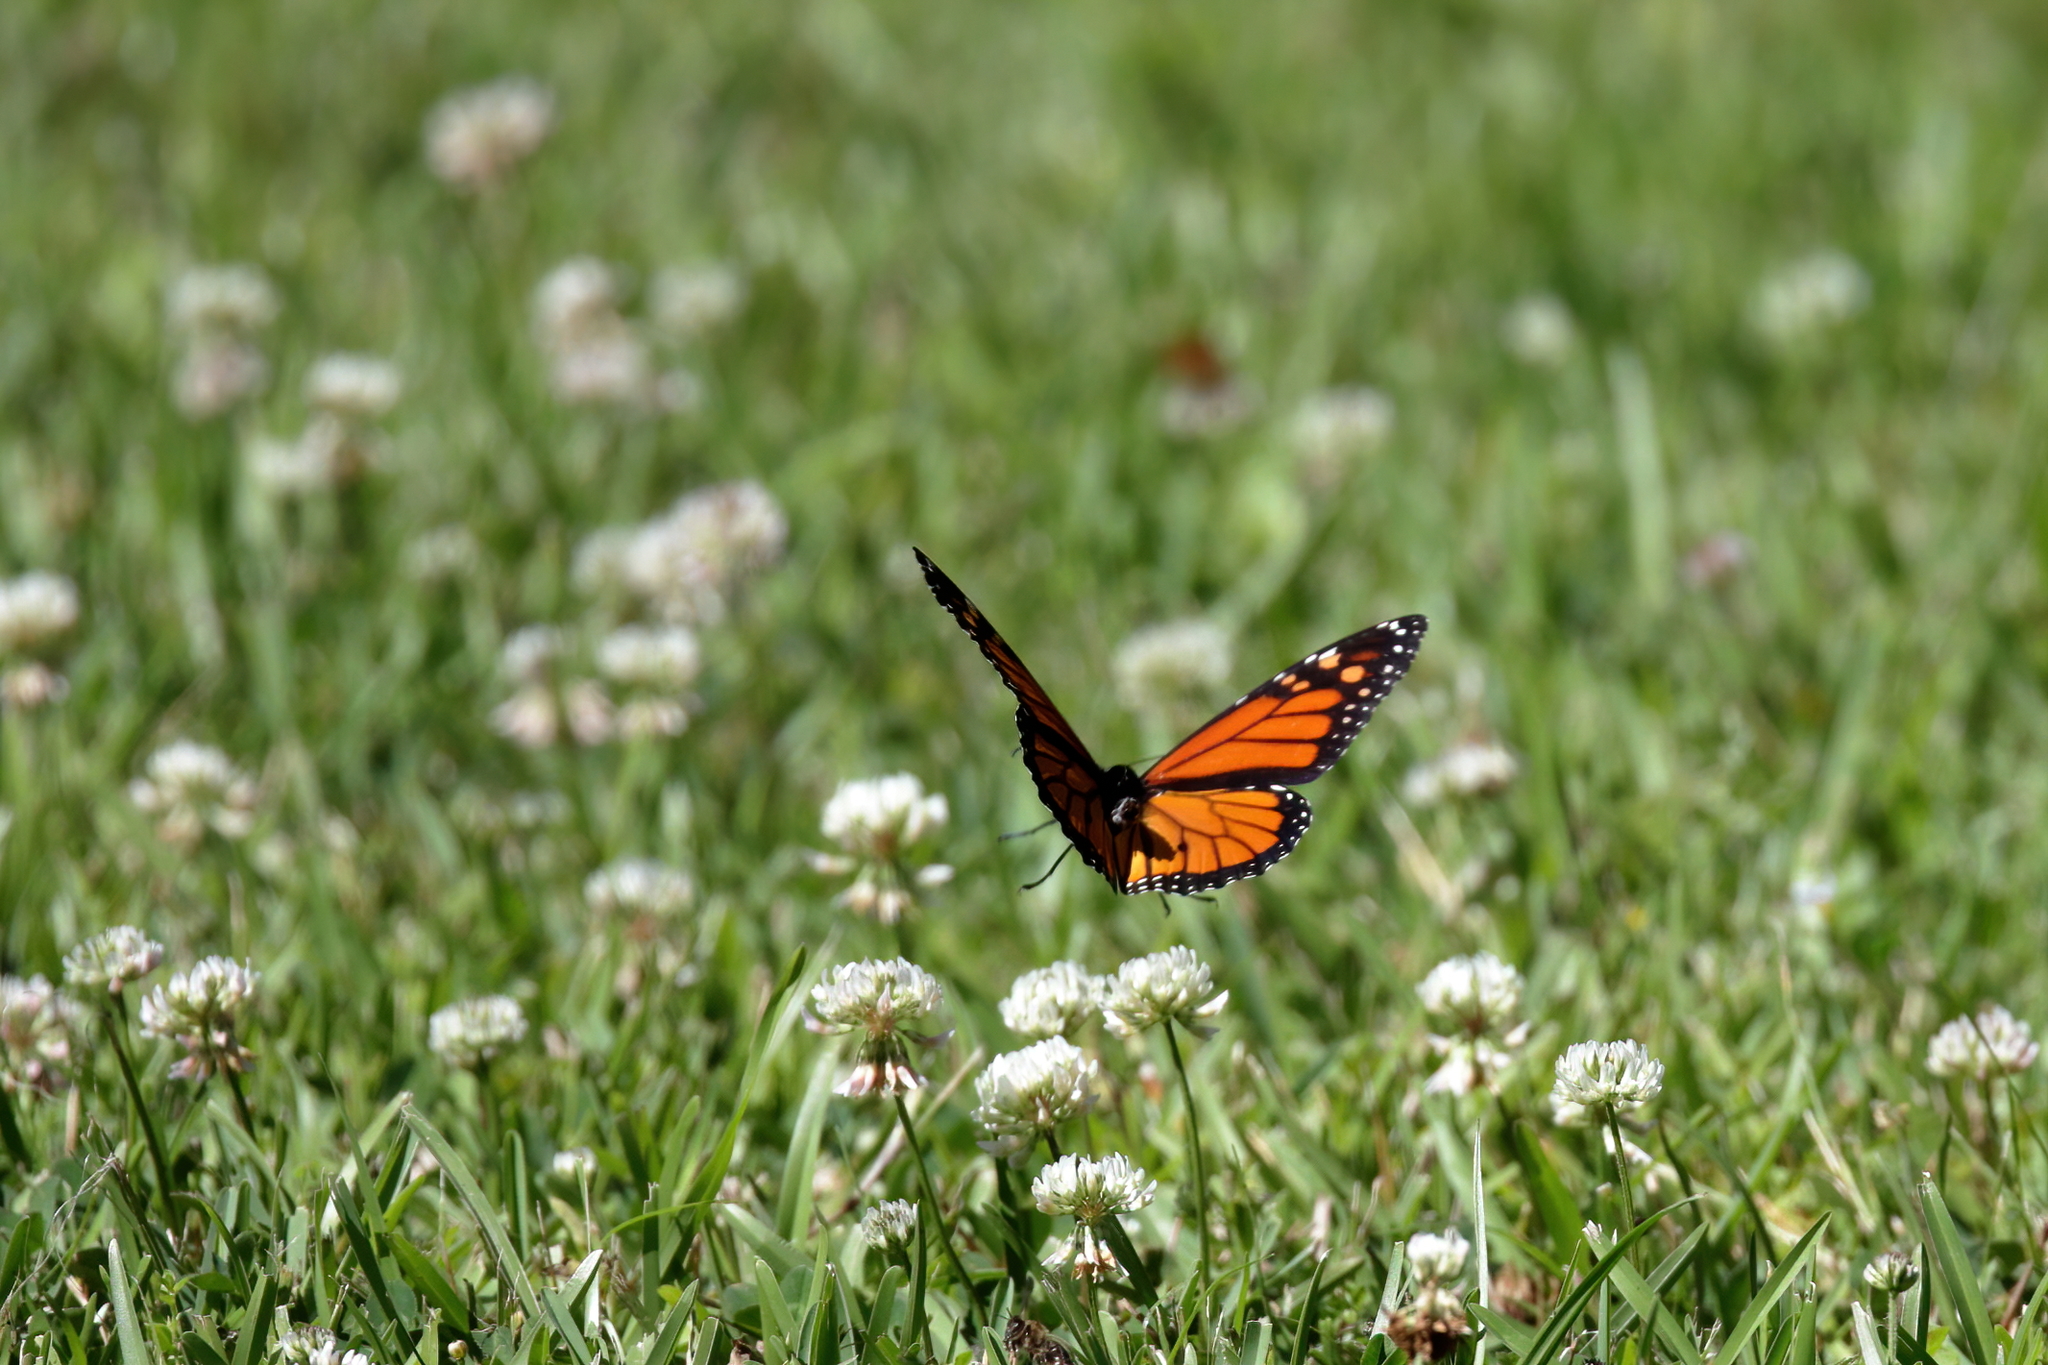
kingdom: Animalia
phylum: Arthropoda
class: Insecta
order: Lepidoptera
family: Nymphalidae
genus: Danaus
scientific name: Danaus plexippus
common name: Monarch
